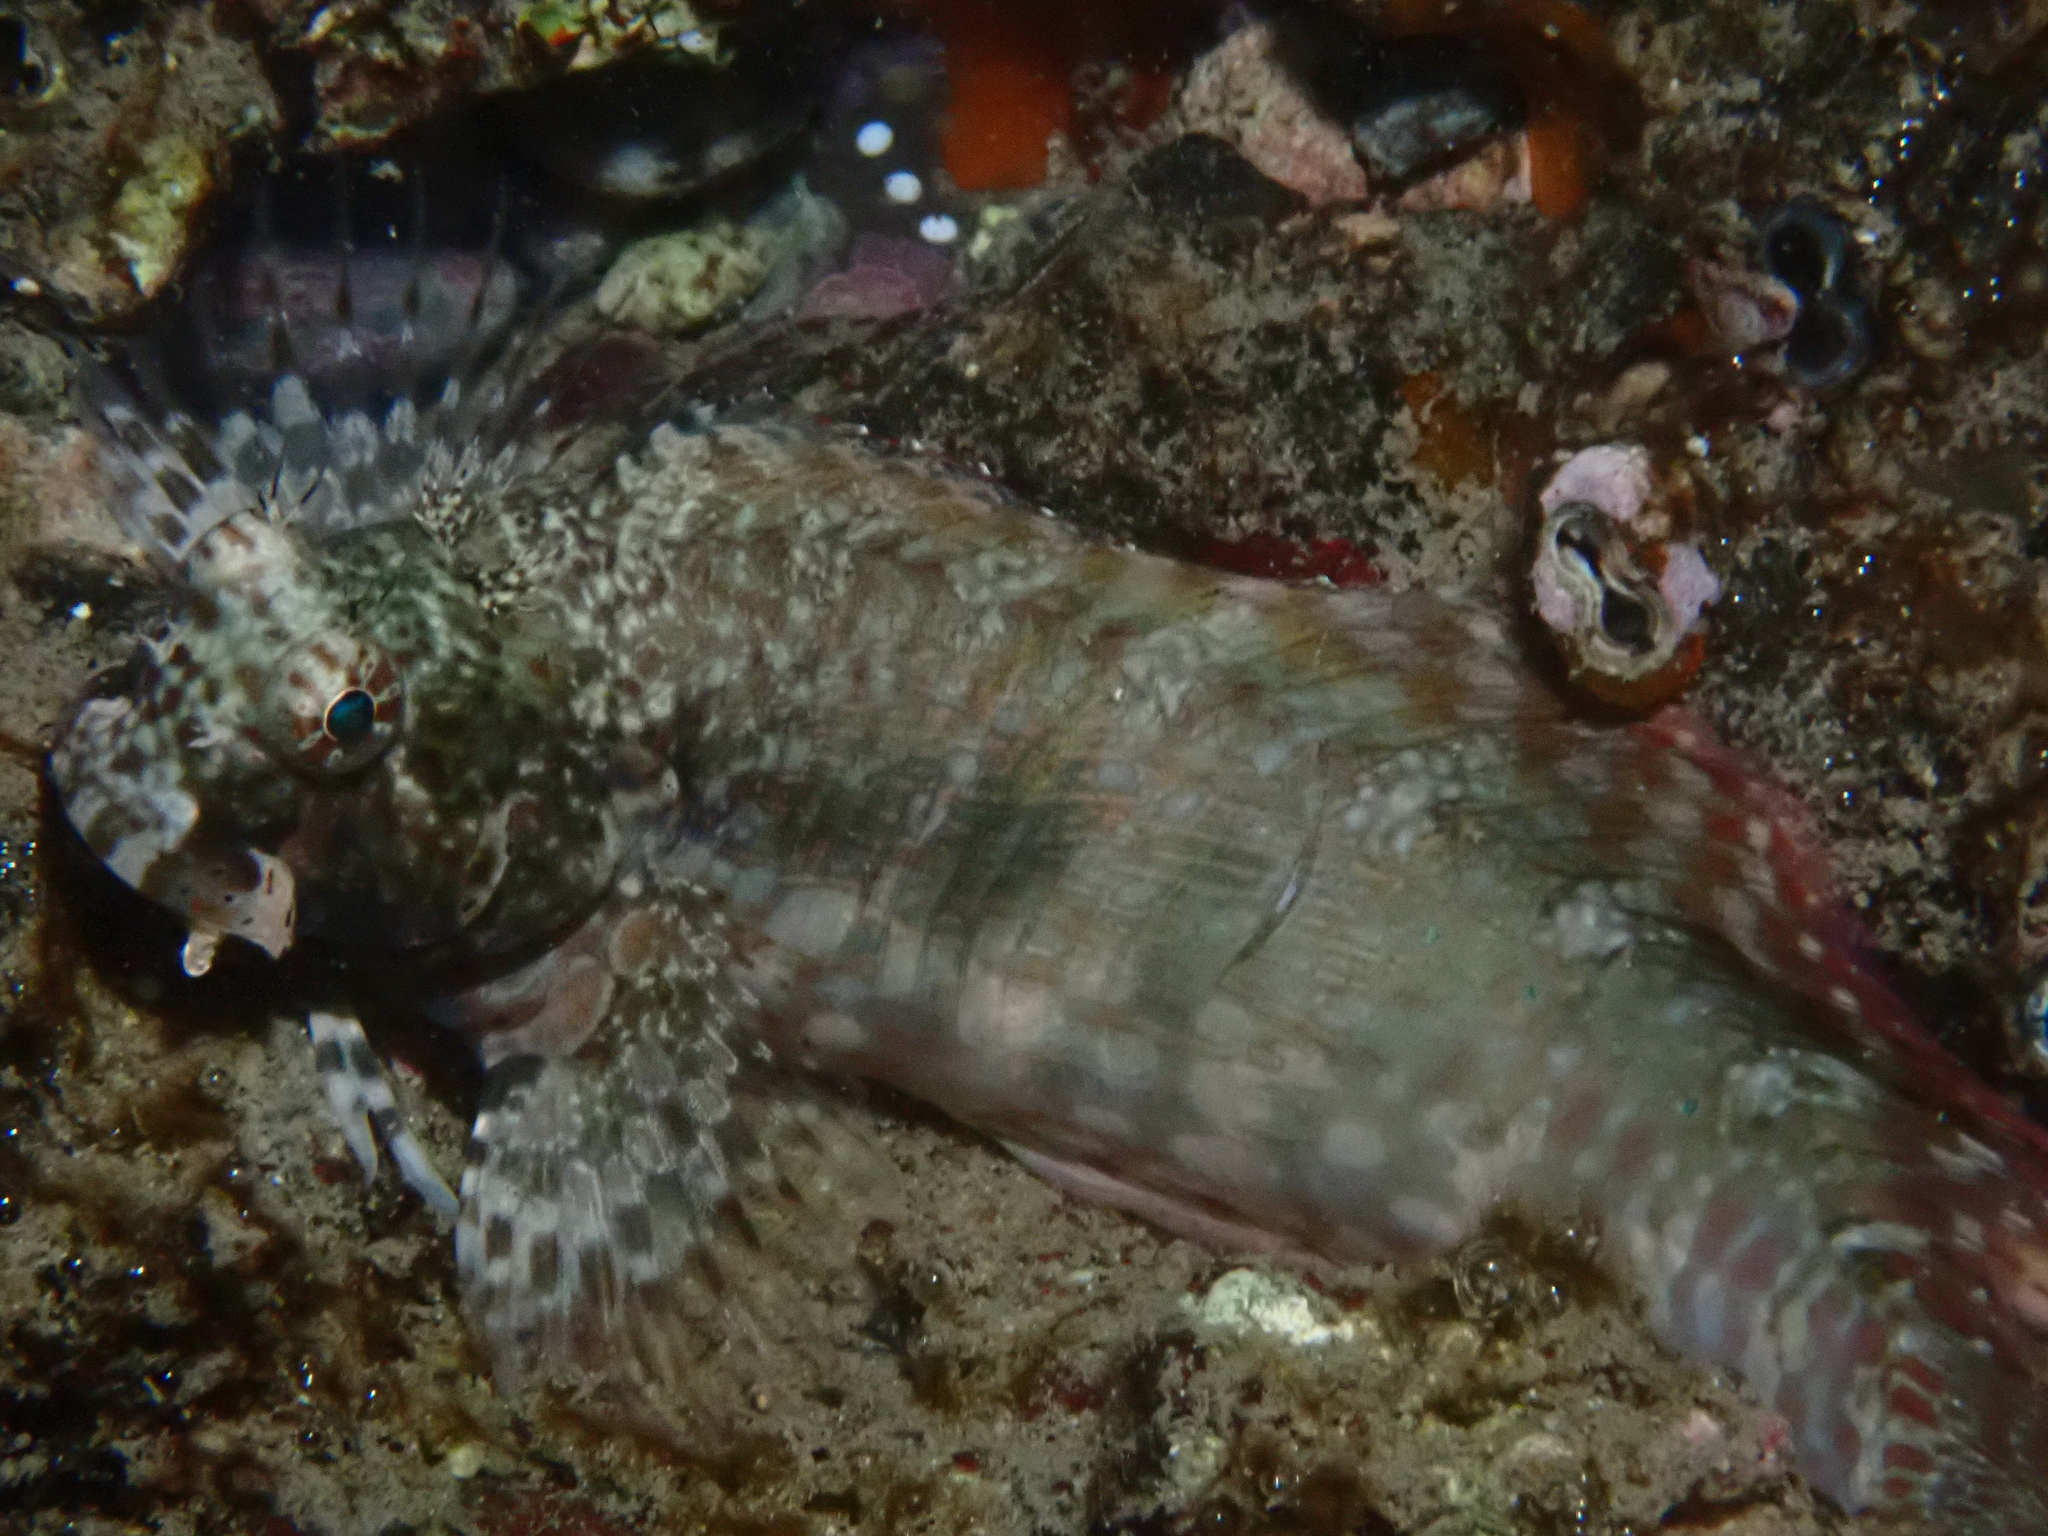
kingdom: Animalia
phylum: Chordata
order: Perciformes
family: Blenniidae
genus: Salarias
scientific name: Salarias fasciatus
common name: Jewelled blenny
